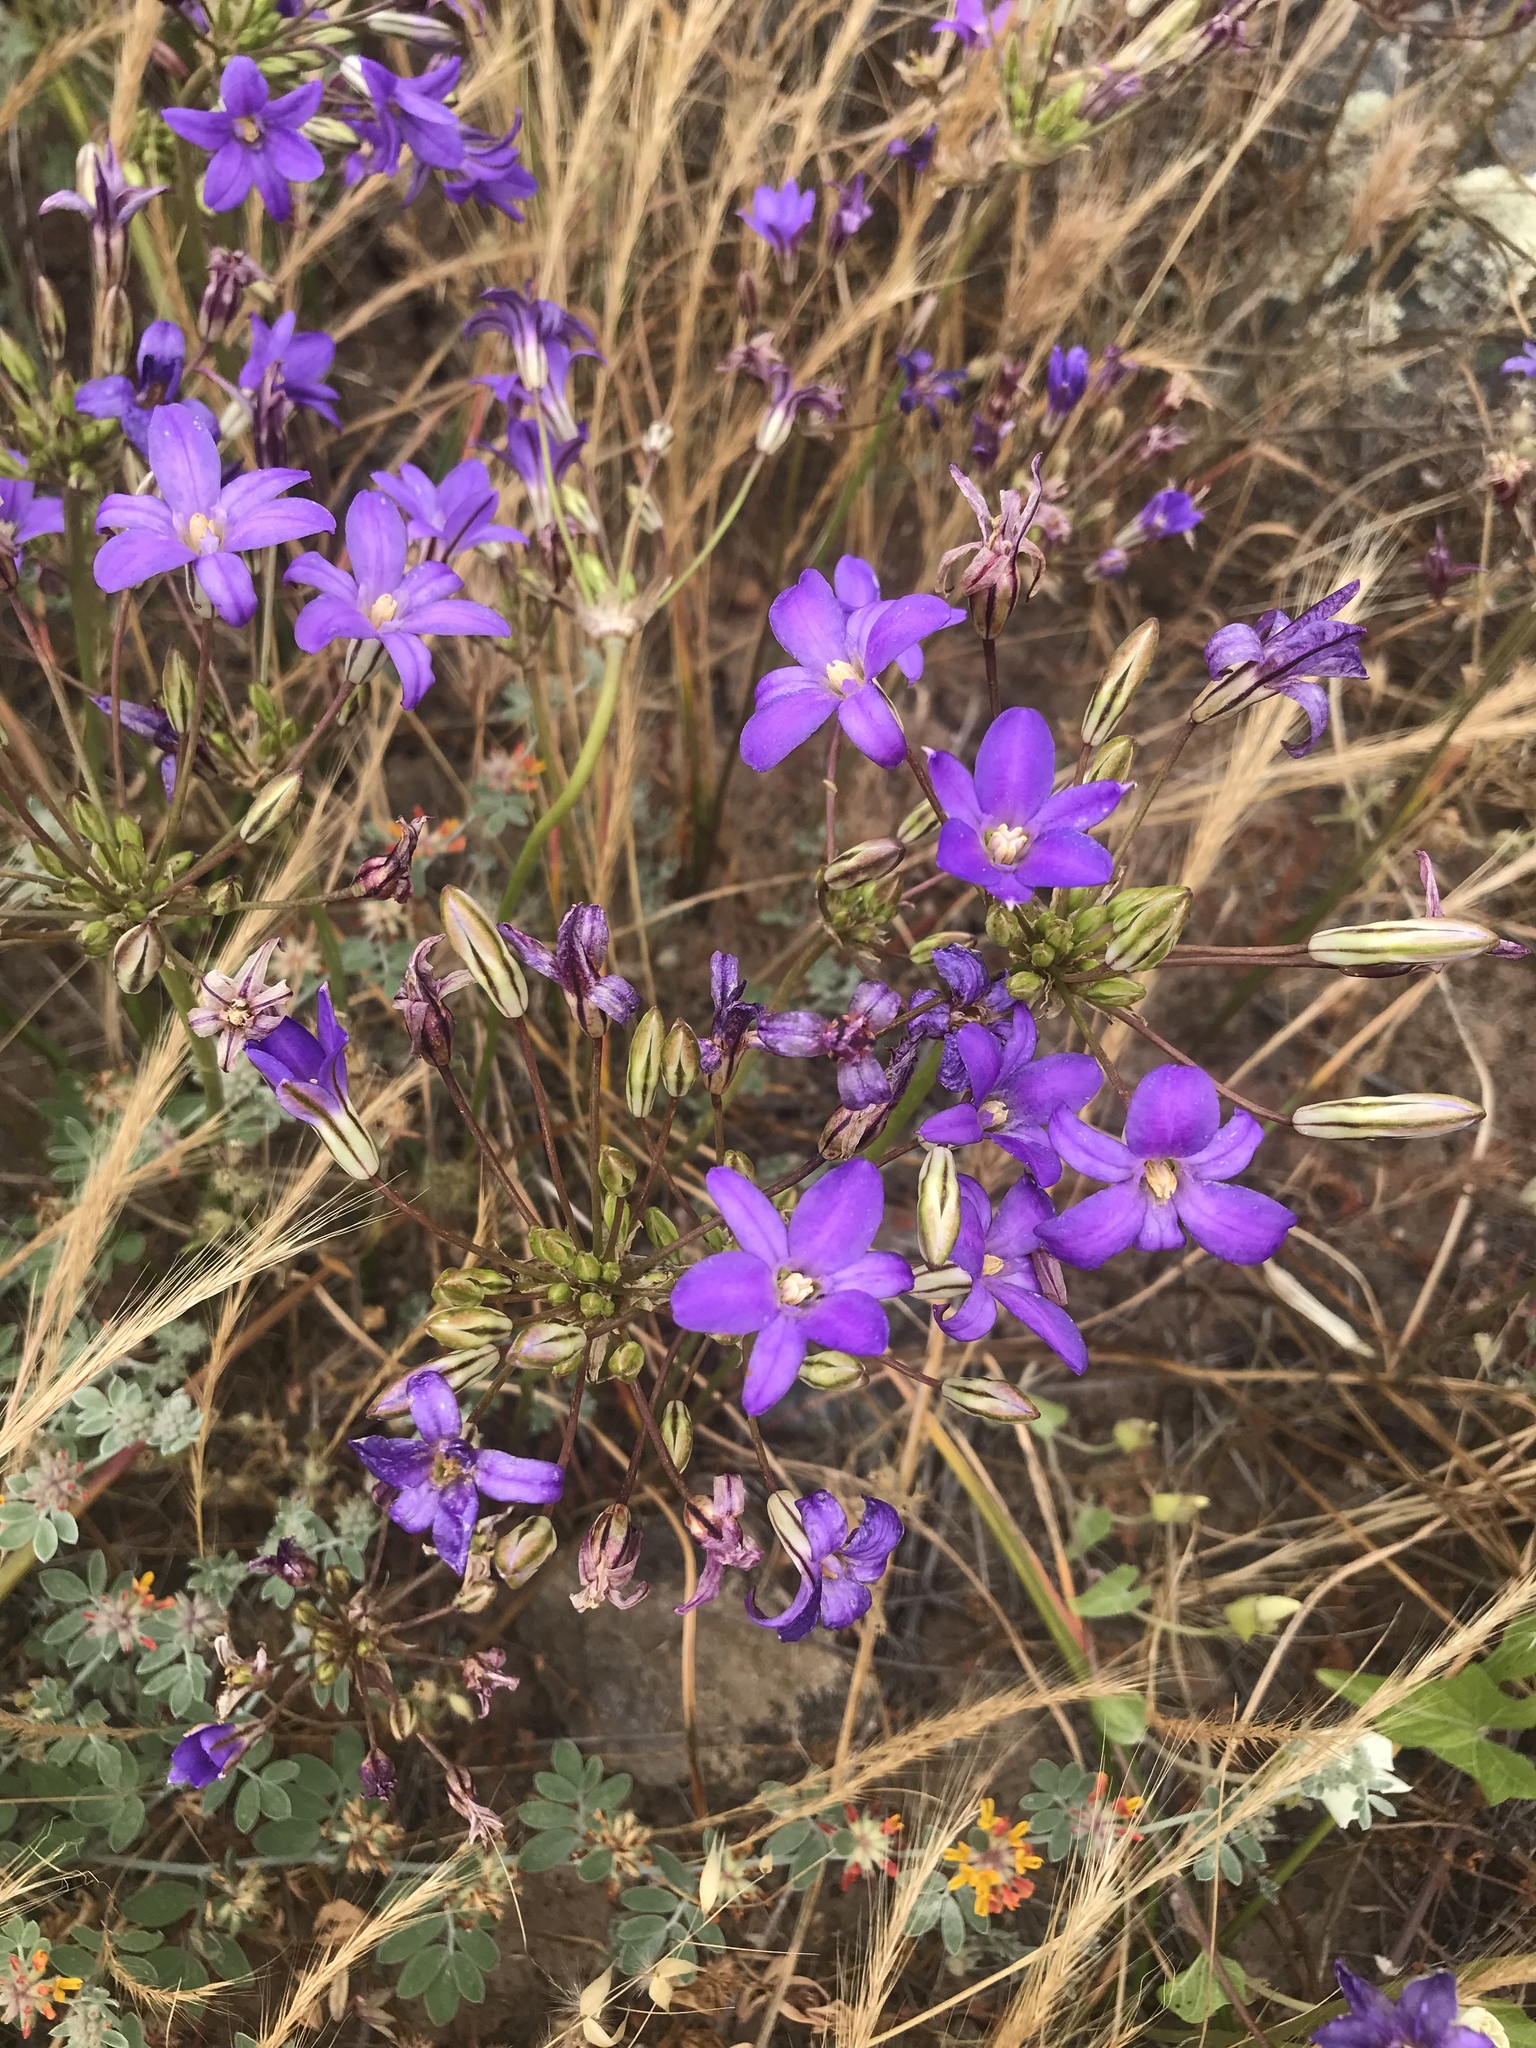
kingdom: Plantae
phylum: Tracheophyta
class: Liliopsida
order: Asparagales
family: Asparagaceae
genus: Brodiaea
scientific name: Brodiaea kinkiensis
